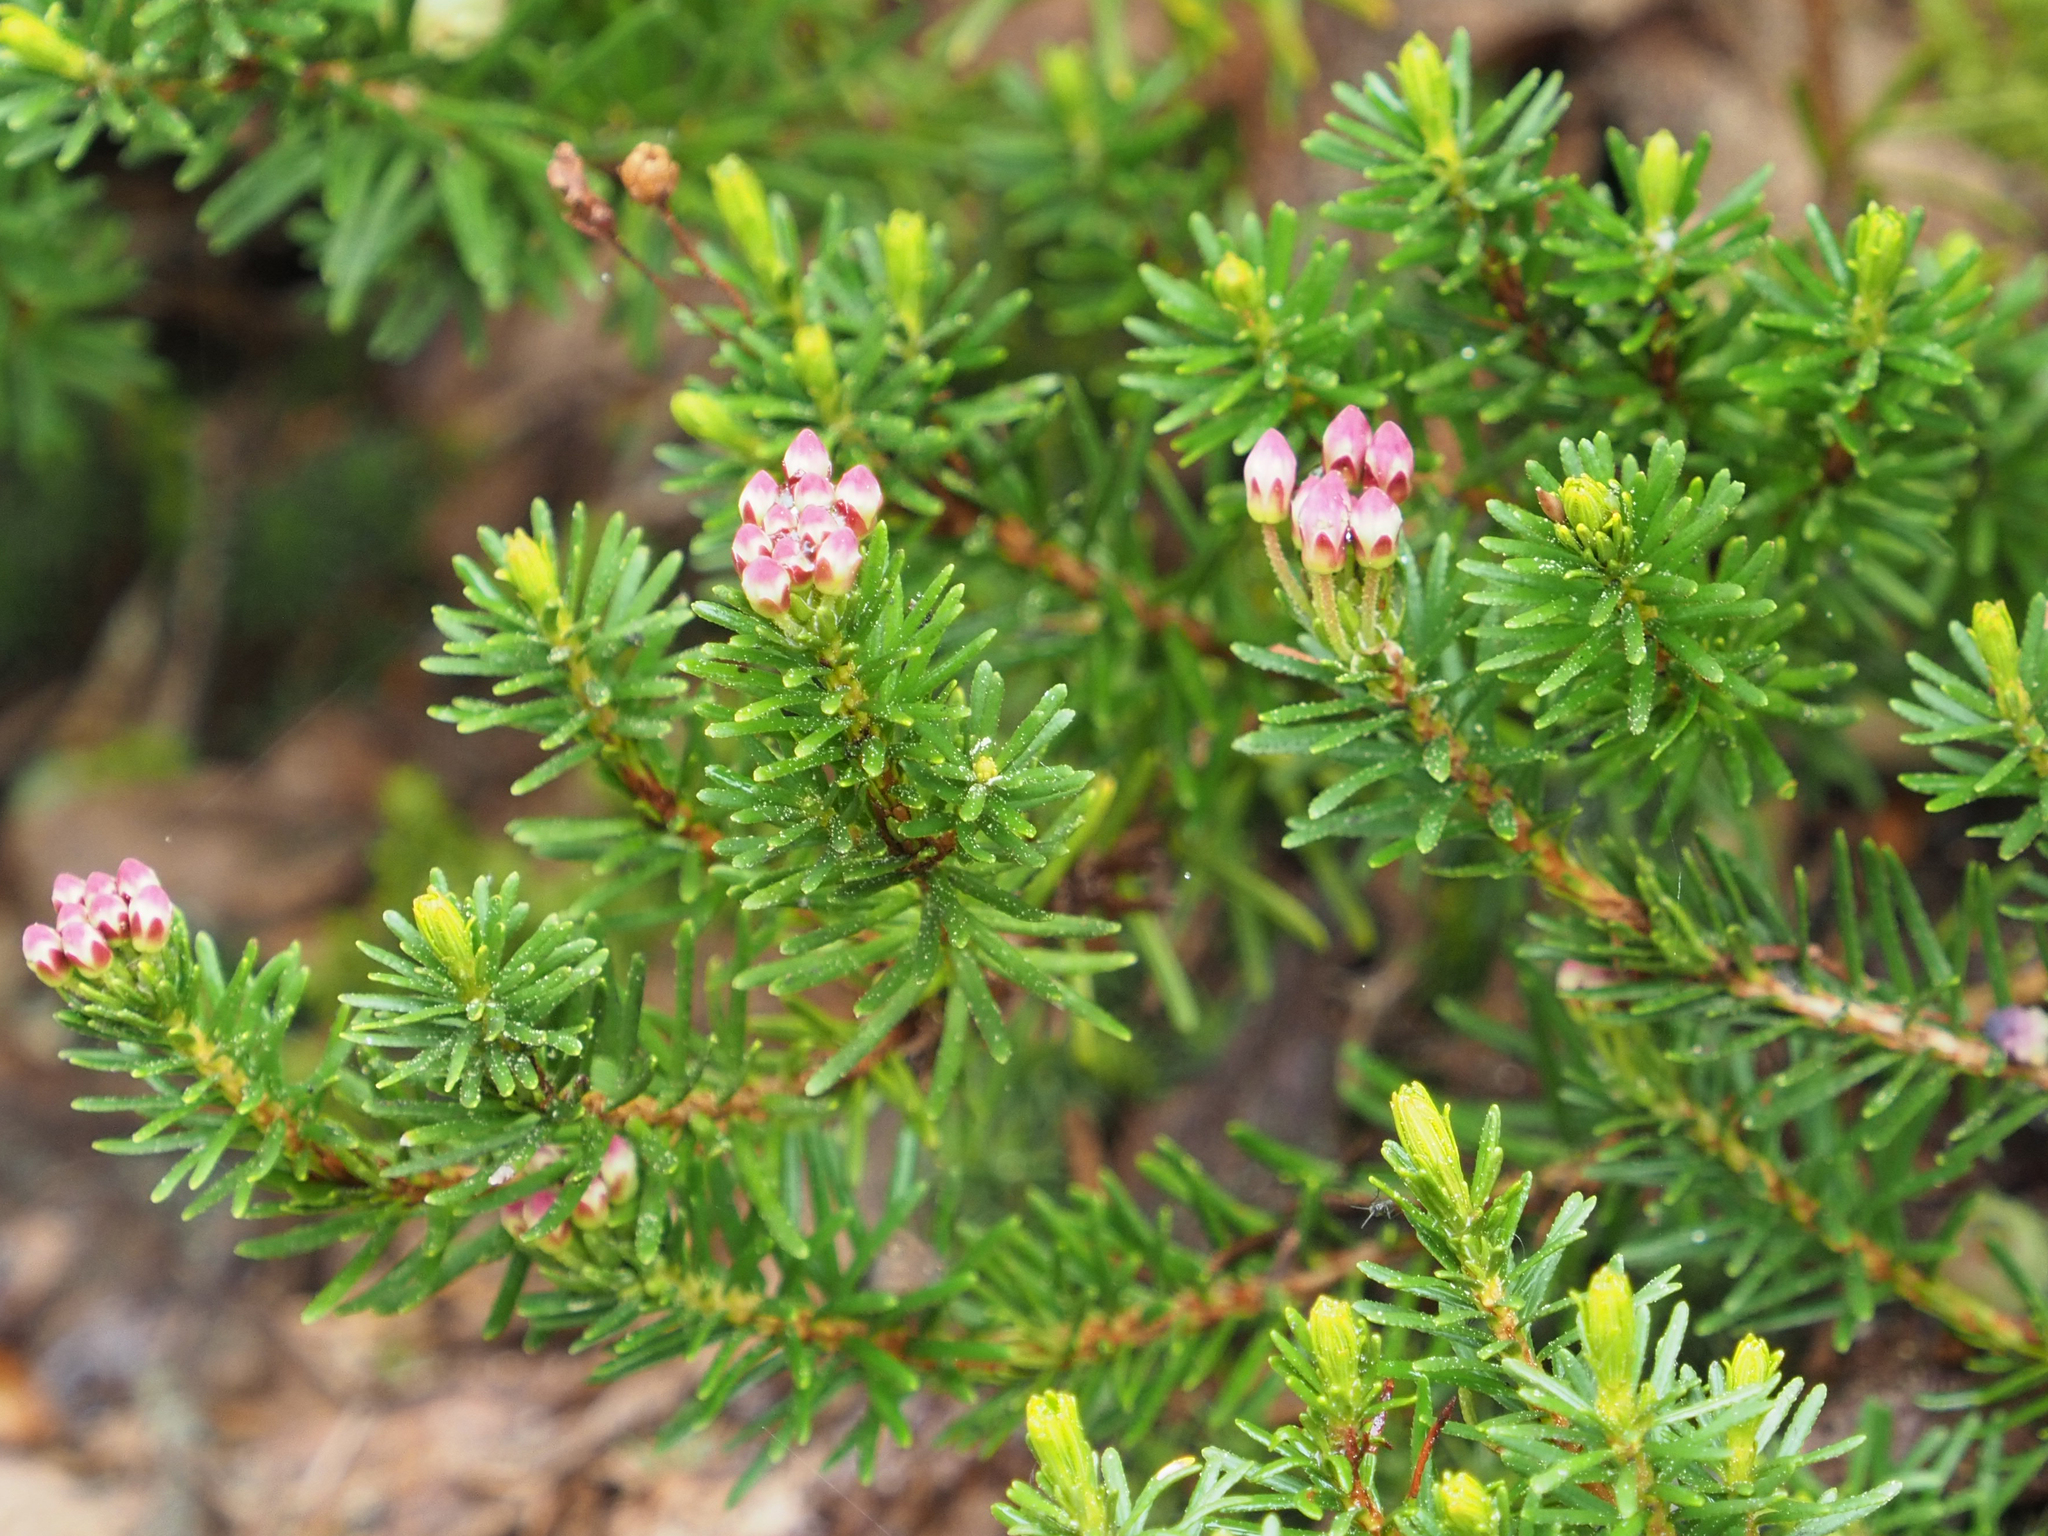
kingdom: Plantae
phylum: Tracheophyta
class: Magnoliopsida
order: Ericales
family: Ericaceae
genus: Phyllodoce
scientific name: Phyllodoce empetriformis
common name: Pink mountain heather
